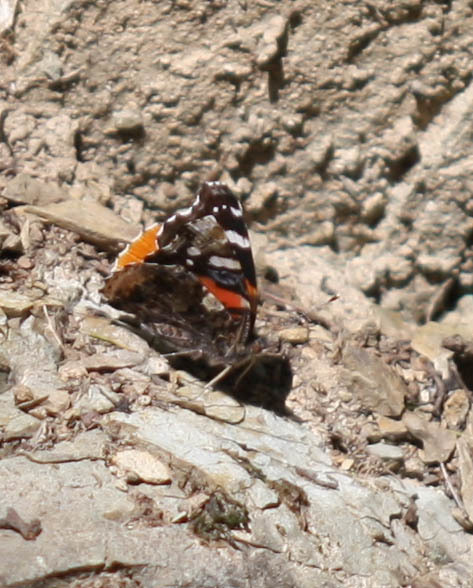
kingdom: Animalia
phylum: Arthropoda
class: Insecta
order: Lepidoptera
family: Nymphalidae
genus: Vanessa
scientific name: Vanessa atalanta
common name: Red admiral
